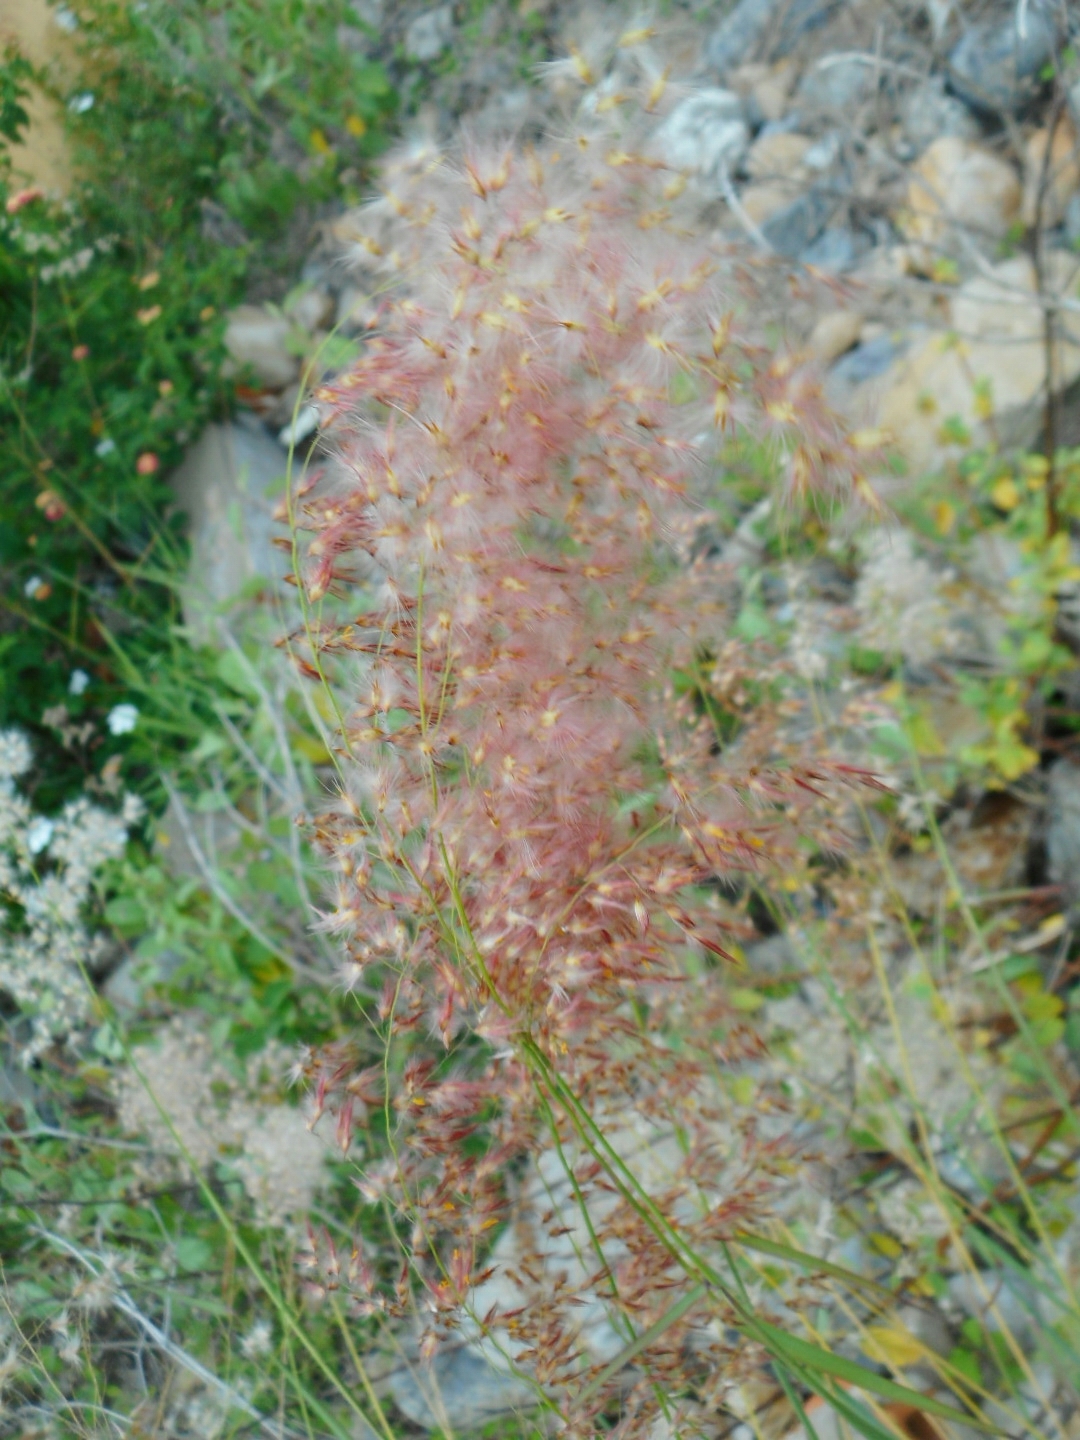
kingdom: Plantae
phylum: Tracheophyta
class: Liliopsida
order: Poales
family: Poaceae
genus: Melinis
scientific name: Melinis repens
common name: Rose natal grass
